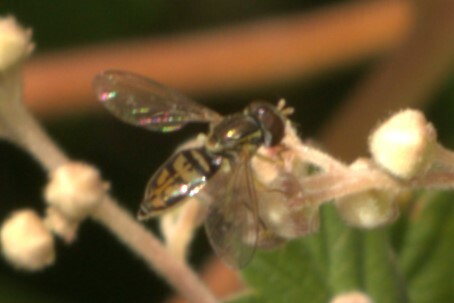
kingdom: Animalia
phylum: Arthropoda
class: Insecta
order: Diptera
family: Syrphidae
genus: Toxomerus
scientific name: Toxomerus marginatus
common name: Syrphid fly
